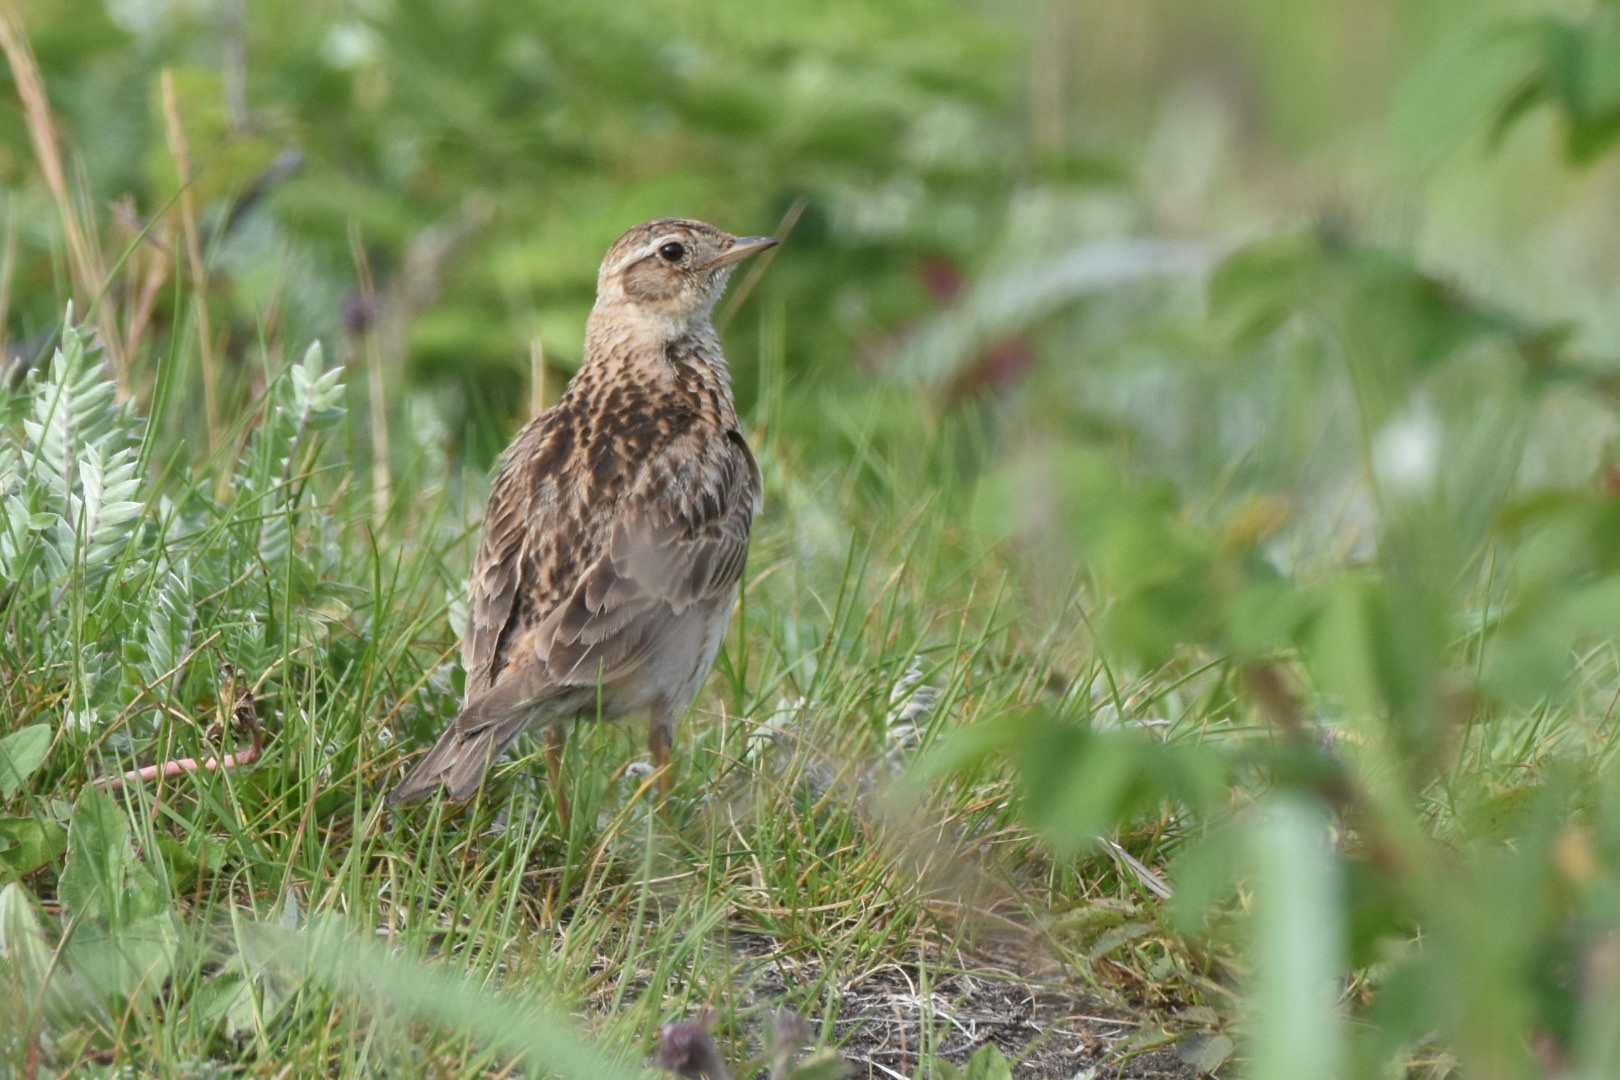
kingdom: Animalia
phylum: Chordata
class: Aves
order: Passeriformes
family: Alaudidae
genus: Alauda
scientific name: Alauda arvensis
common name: Eurasian skylark
